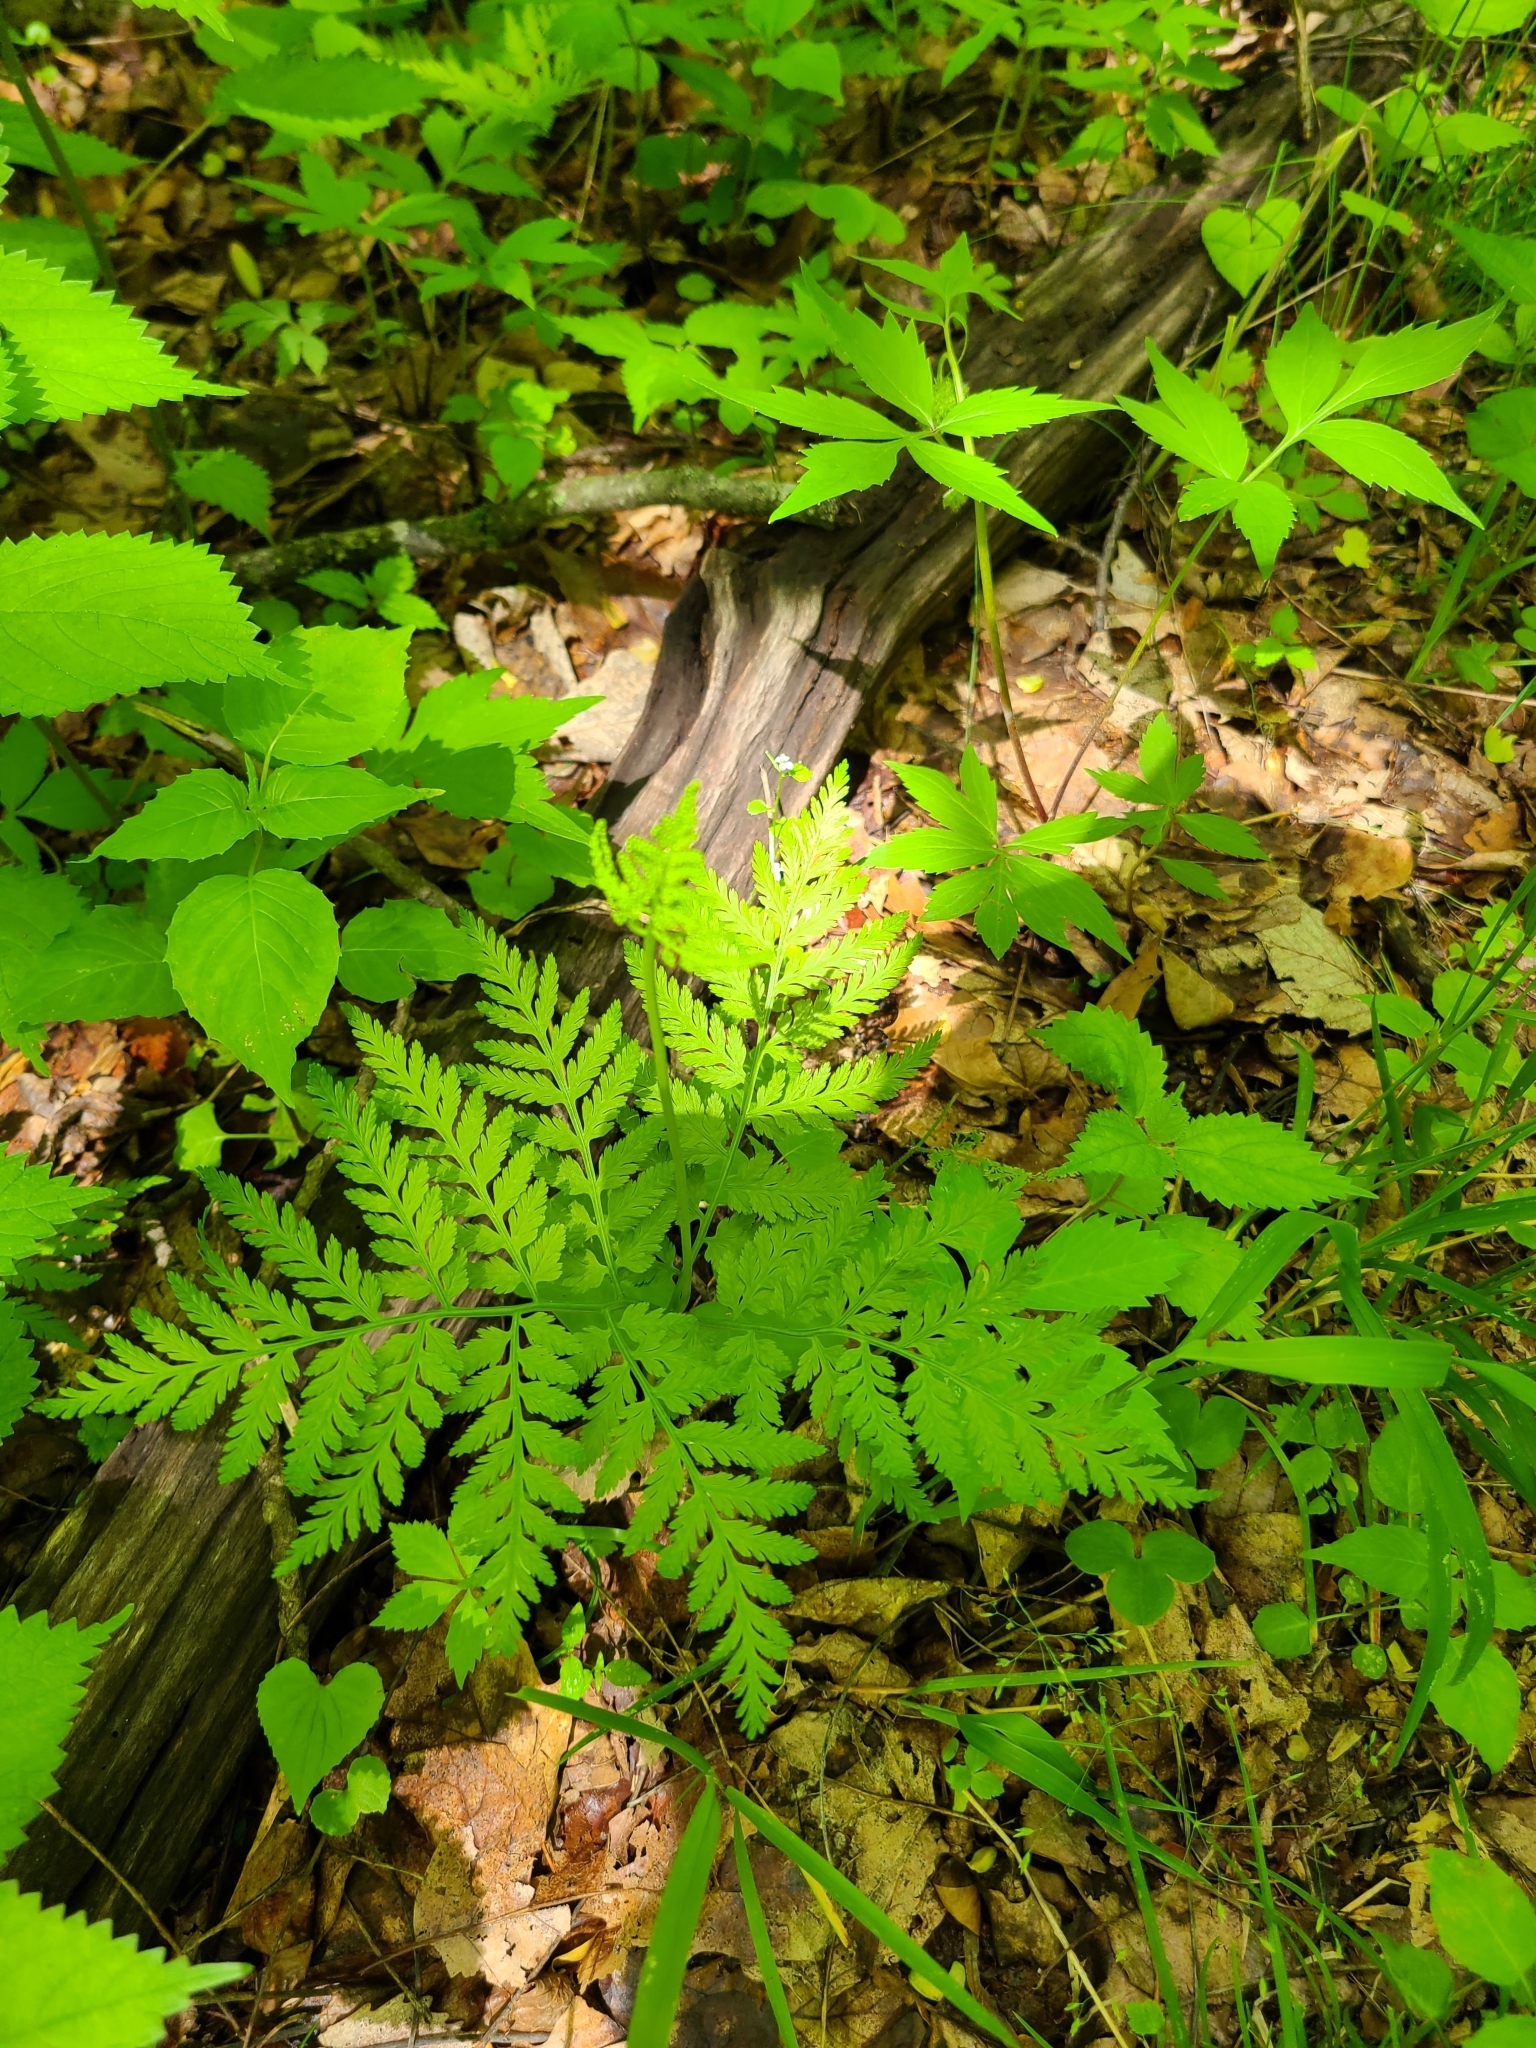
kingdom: Plantae
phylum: Tracheophyta
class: Polypodiopsida
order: Ophioglossales
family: Ophioglossaceae
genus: Botrypus
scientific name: Botrypus virginianus
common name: Common grapefern
